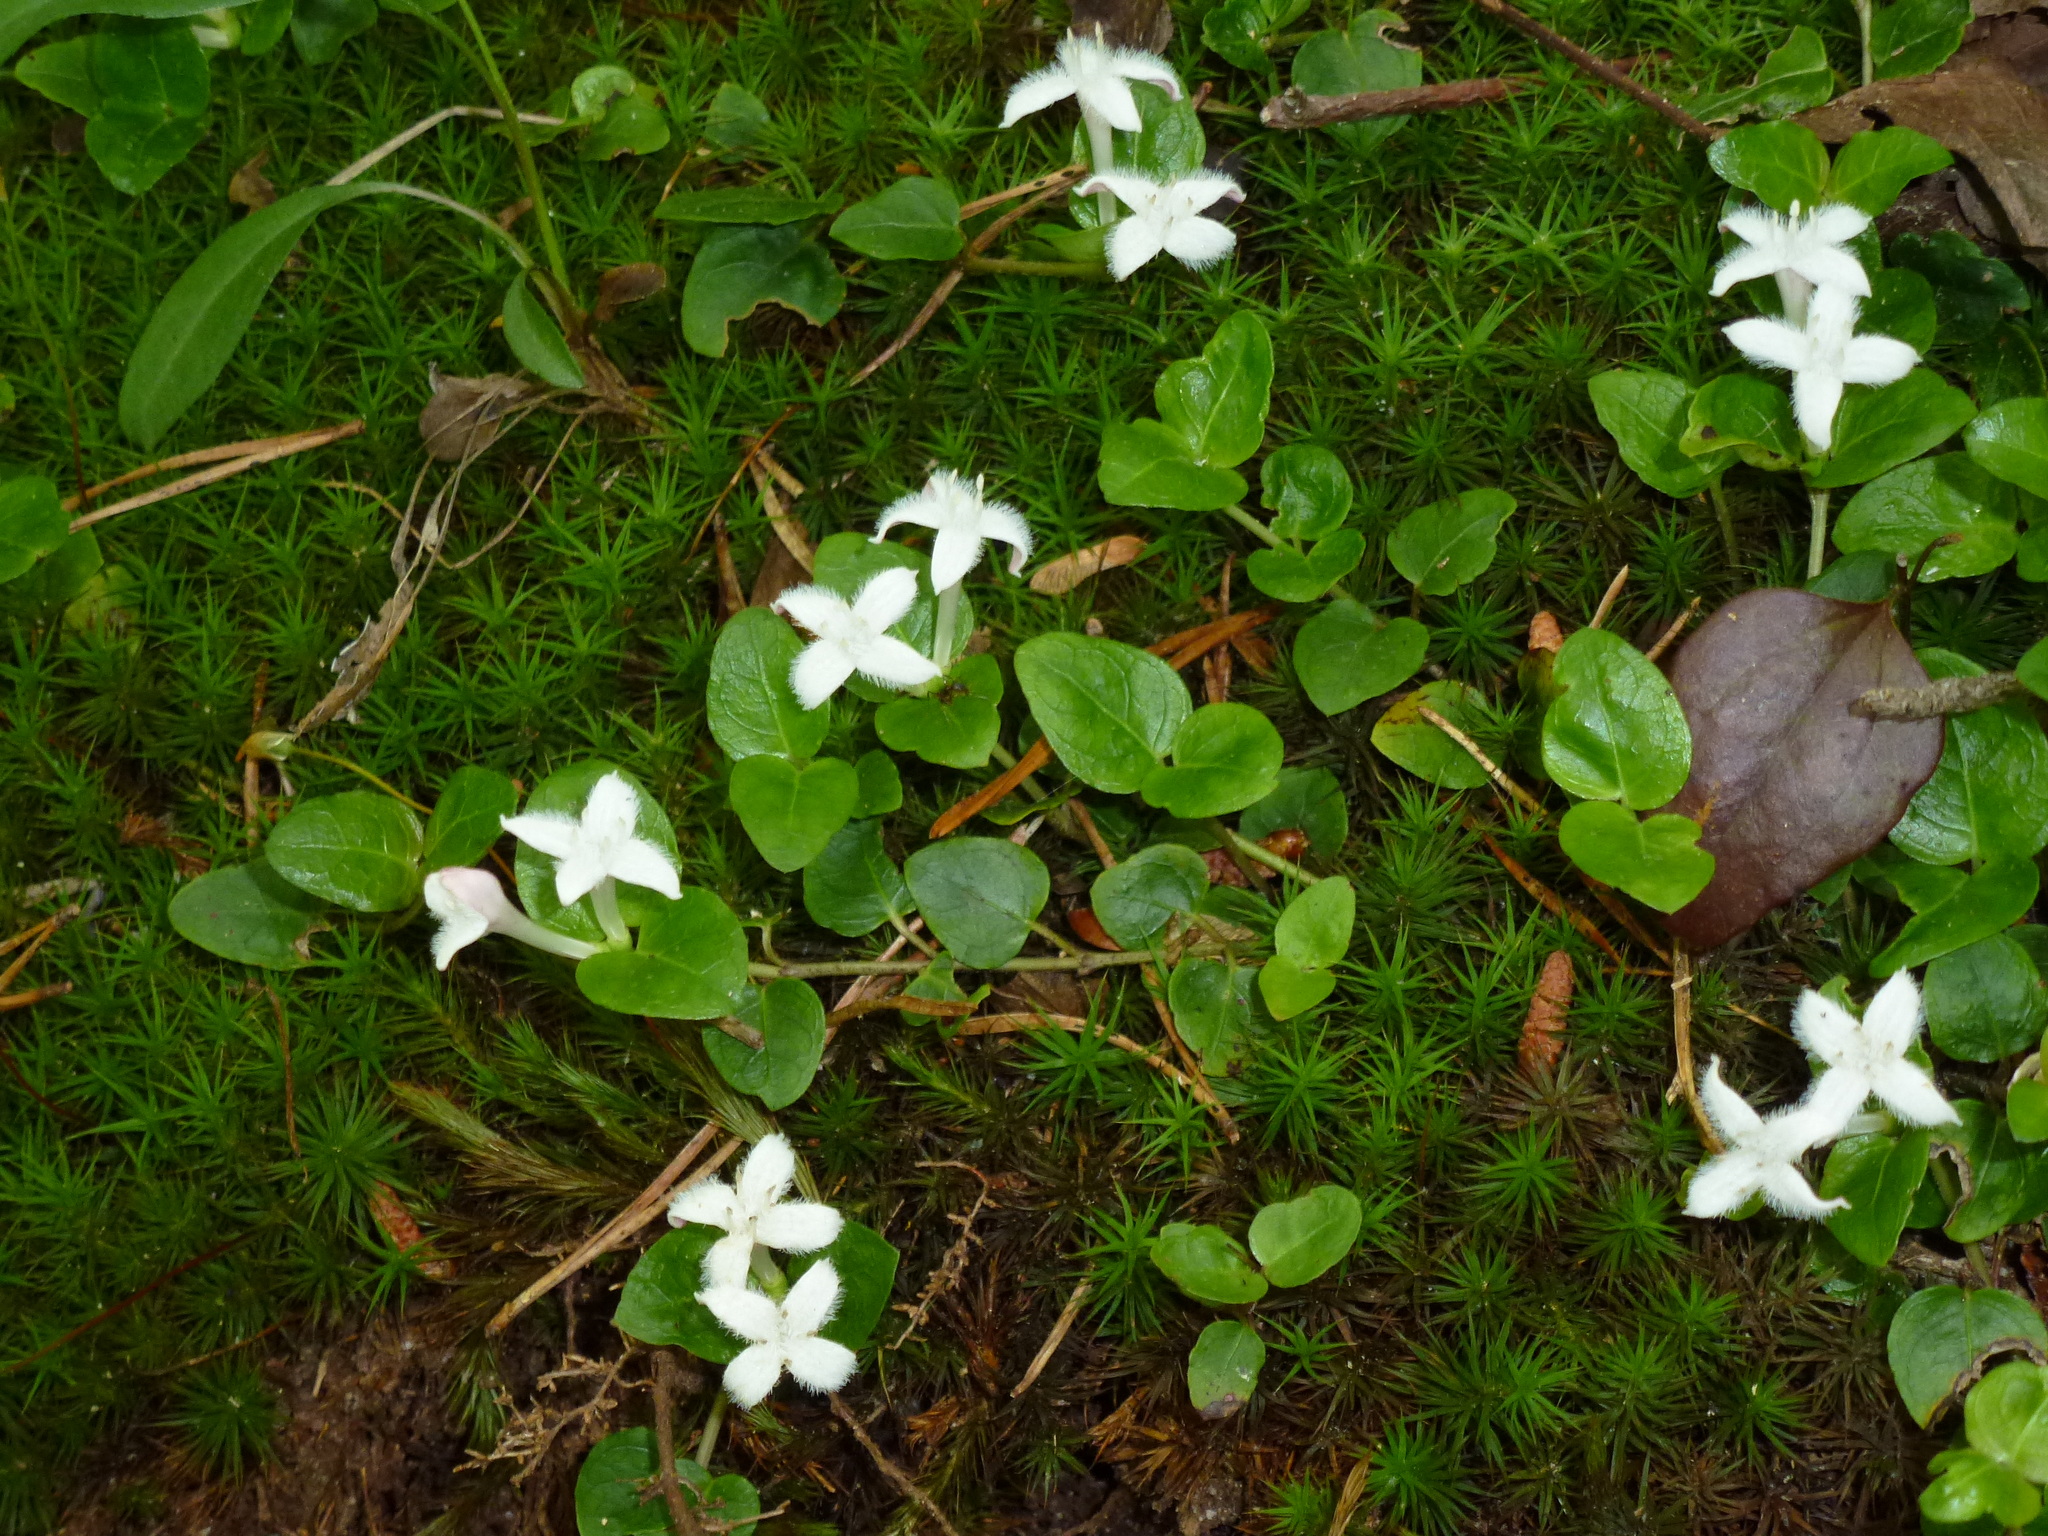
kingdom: Plantae
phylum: Tracheophyta
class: Magnoliopsida
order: Gentianales
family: Rubiaceae
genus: Mitchella
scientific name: Mitchella repens
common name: Partridge-berry
